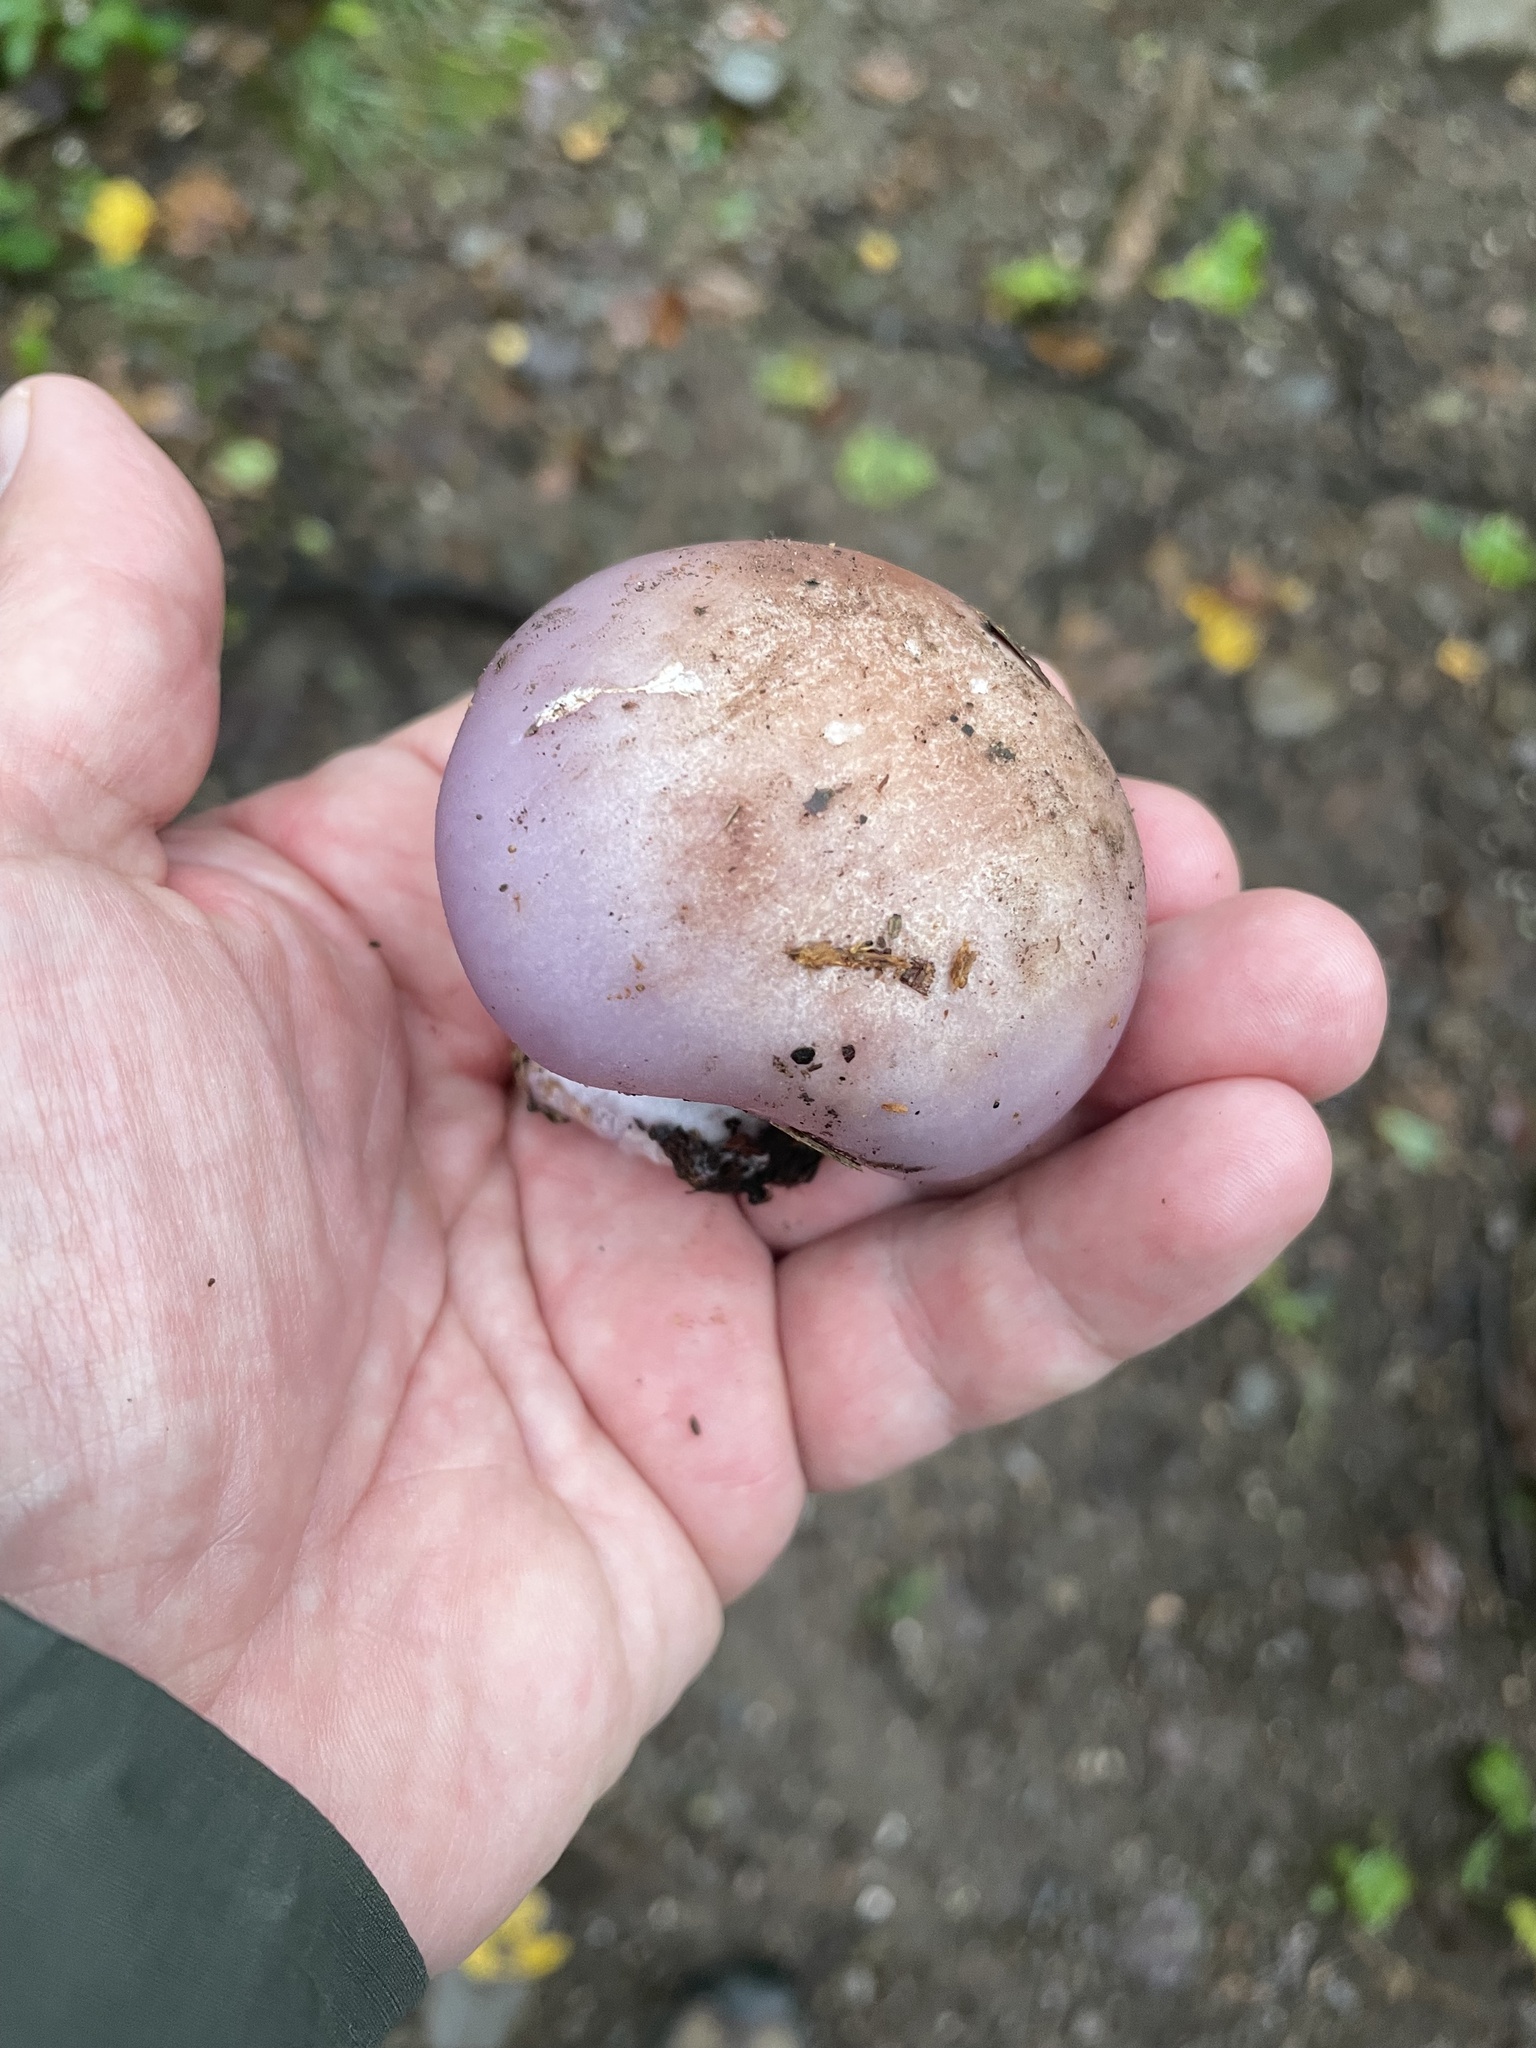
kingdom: Fungi
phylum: Basidiomycota
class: Agaricomycetes
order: Agaricales
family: Tricholomataceae
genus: Collybia
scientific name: Collybia
